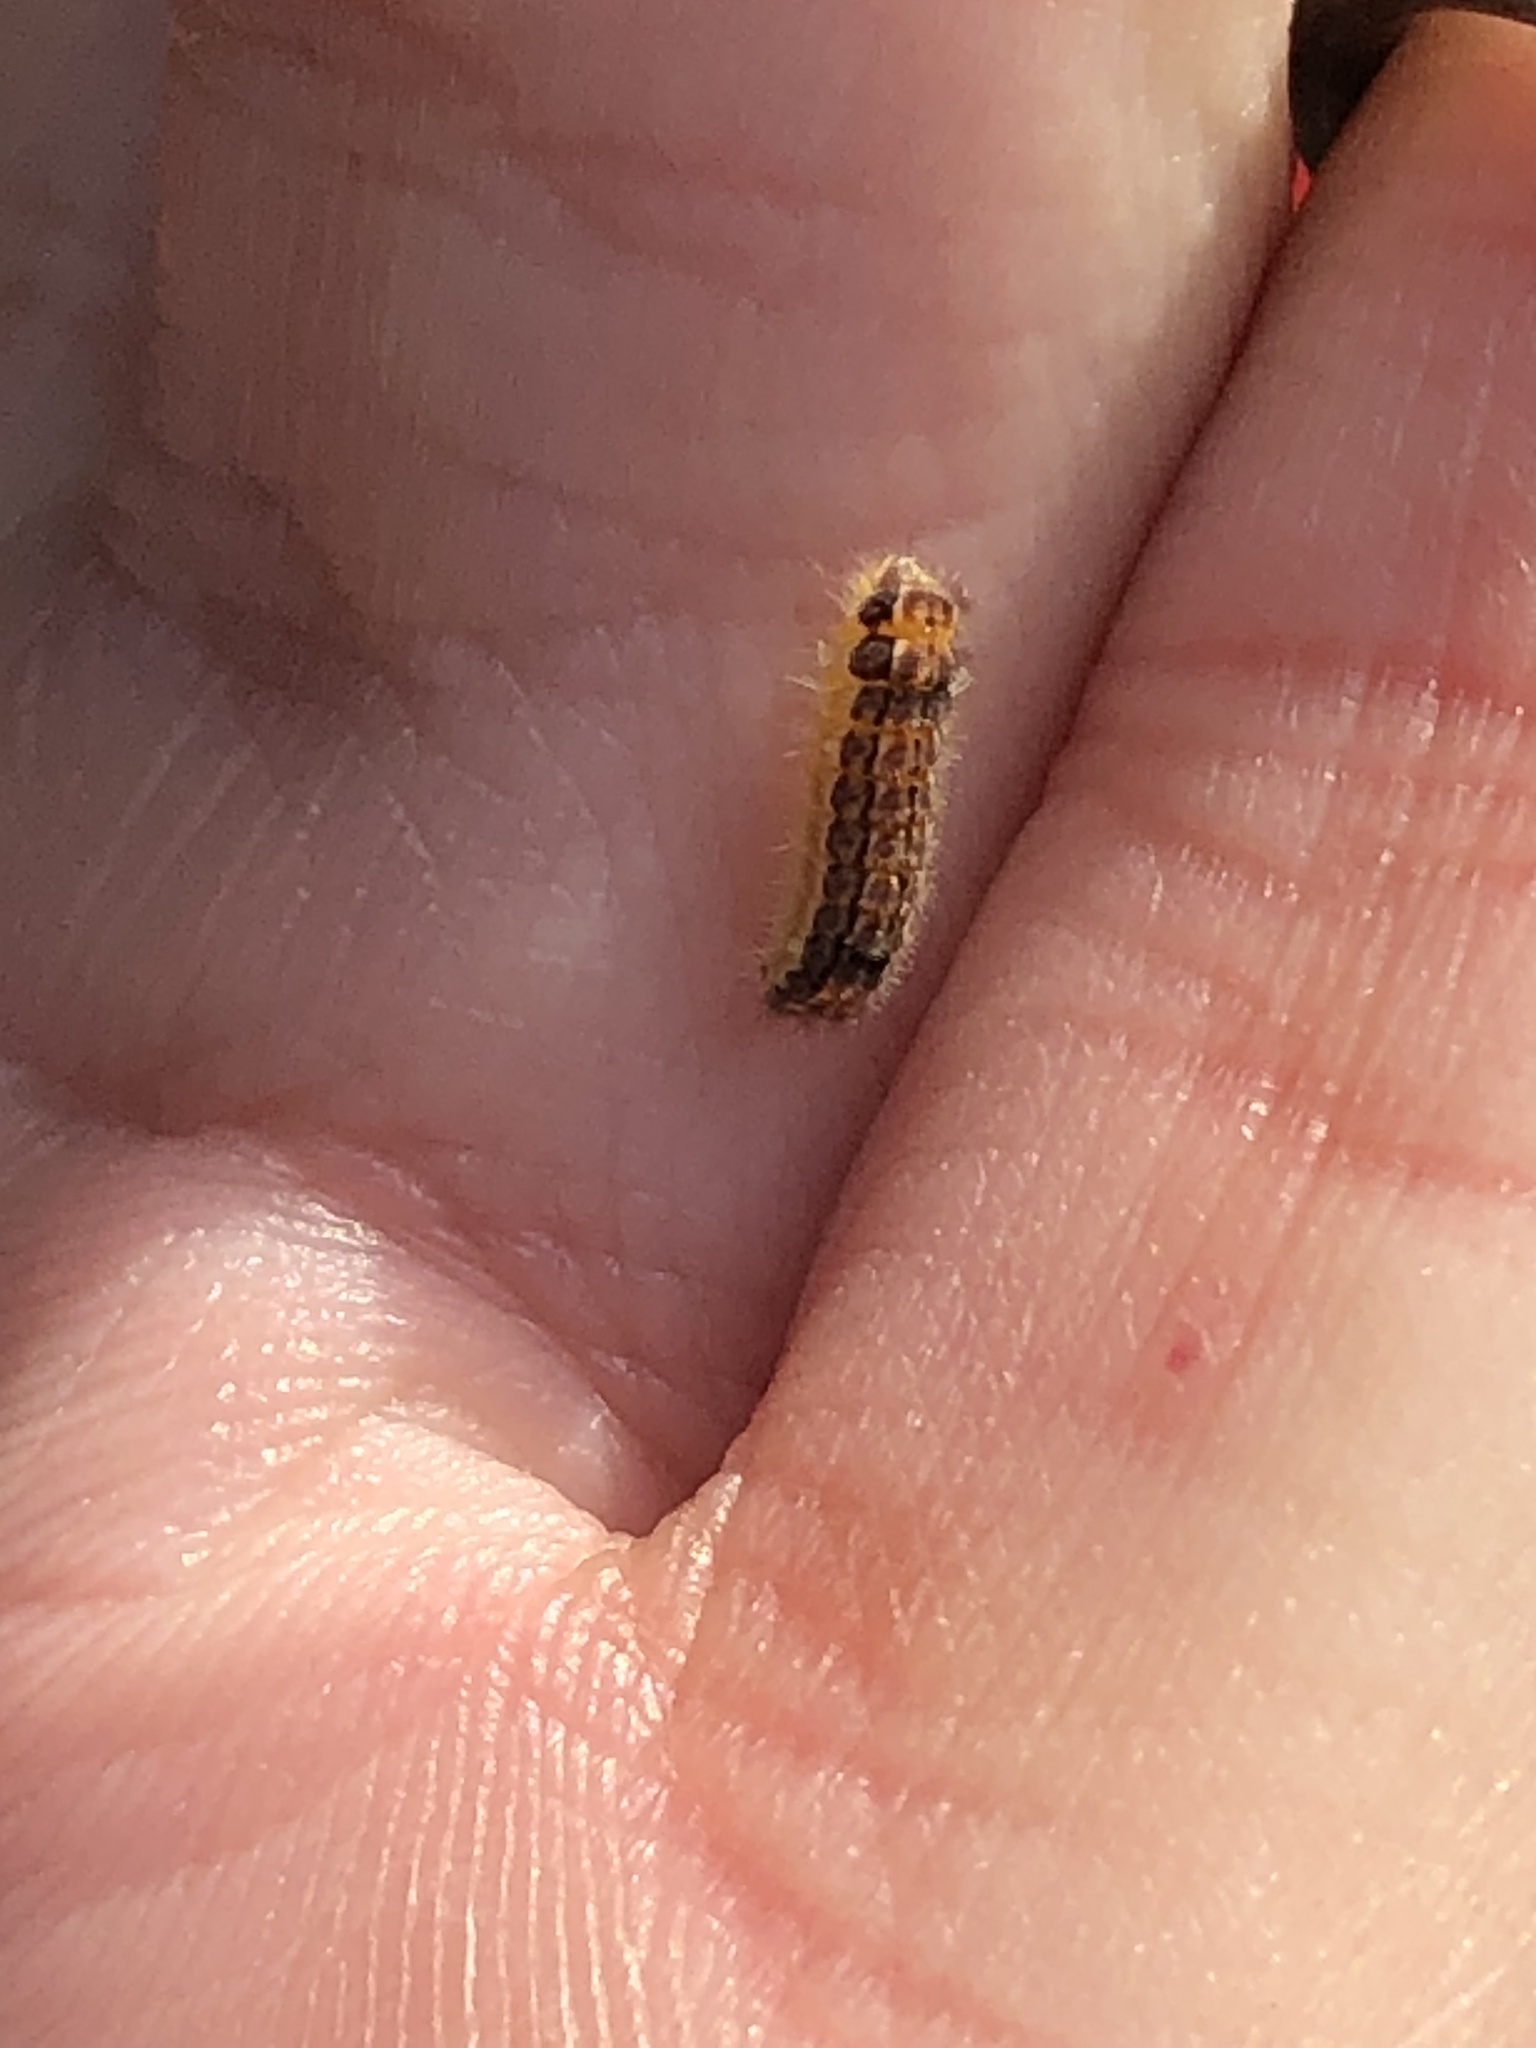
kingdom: Animalia
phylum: Arthropoda
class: Insecta
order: Lepidoptera
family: Zygaenidae
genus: Acoloithus
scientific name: Acoloithus falsarius
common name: Clemens' false skeletonizer
